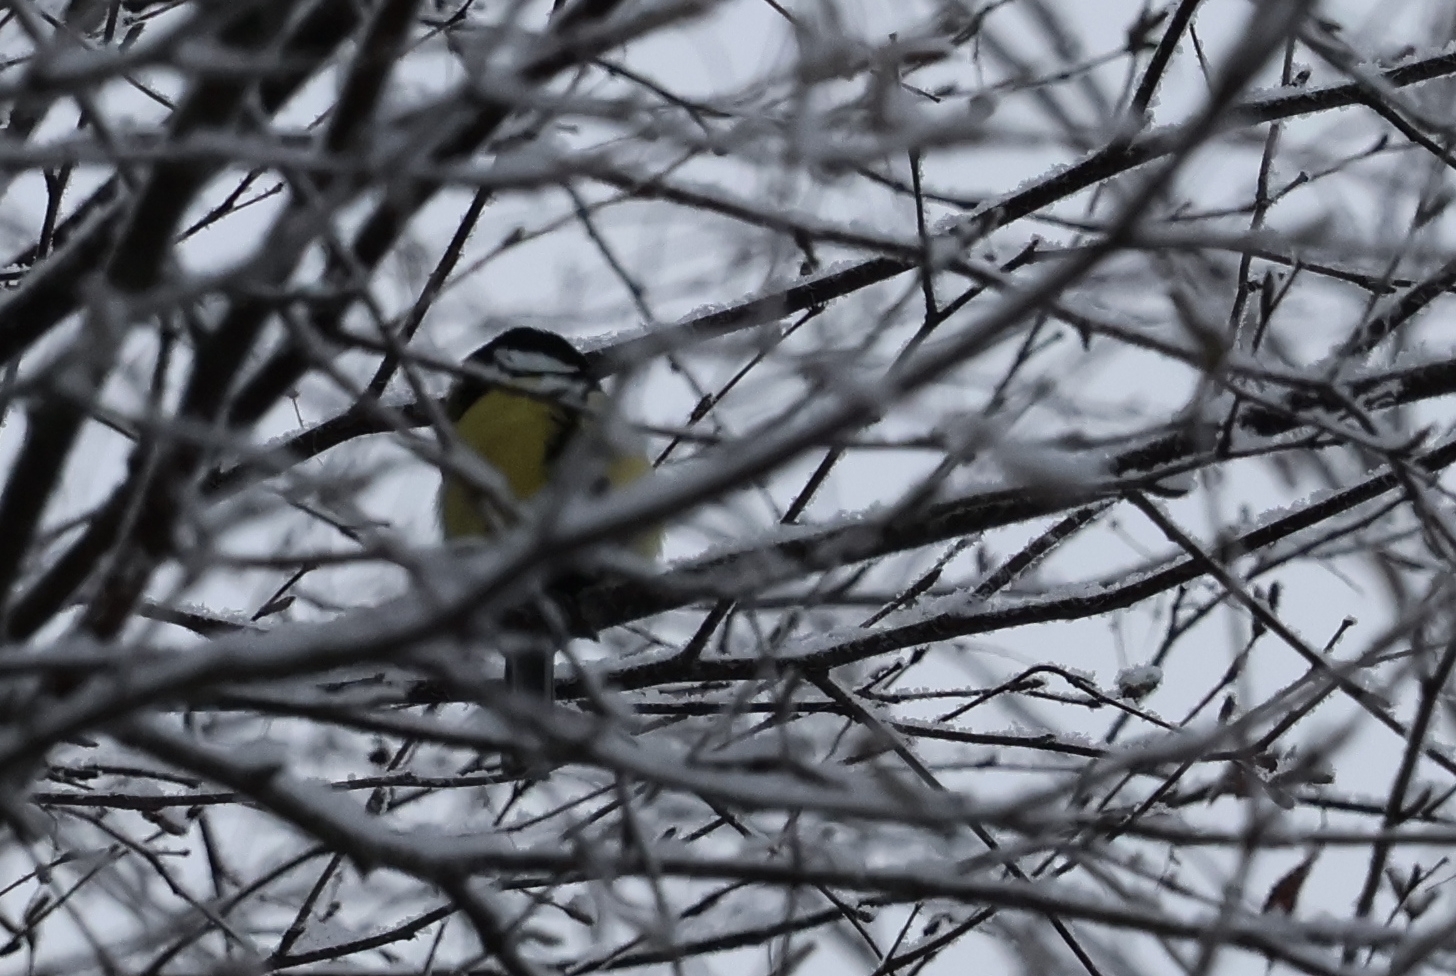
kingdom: Animalia
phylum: Chordata
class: Aves
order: Passeriformes
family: Paridae
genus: Parus
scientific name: Parus major
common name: Great tit
